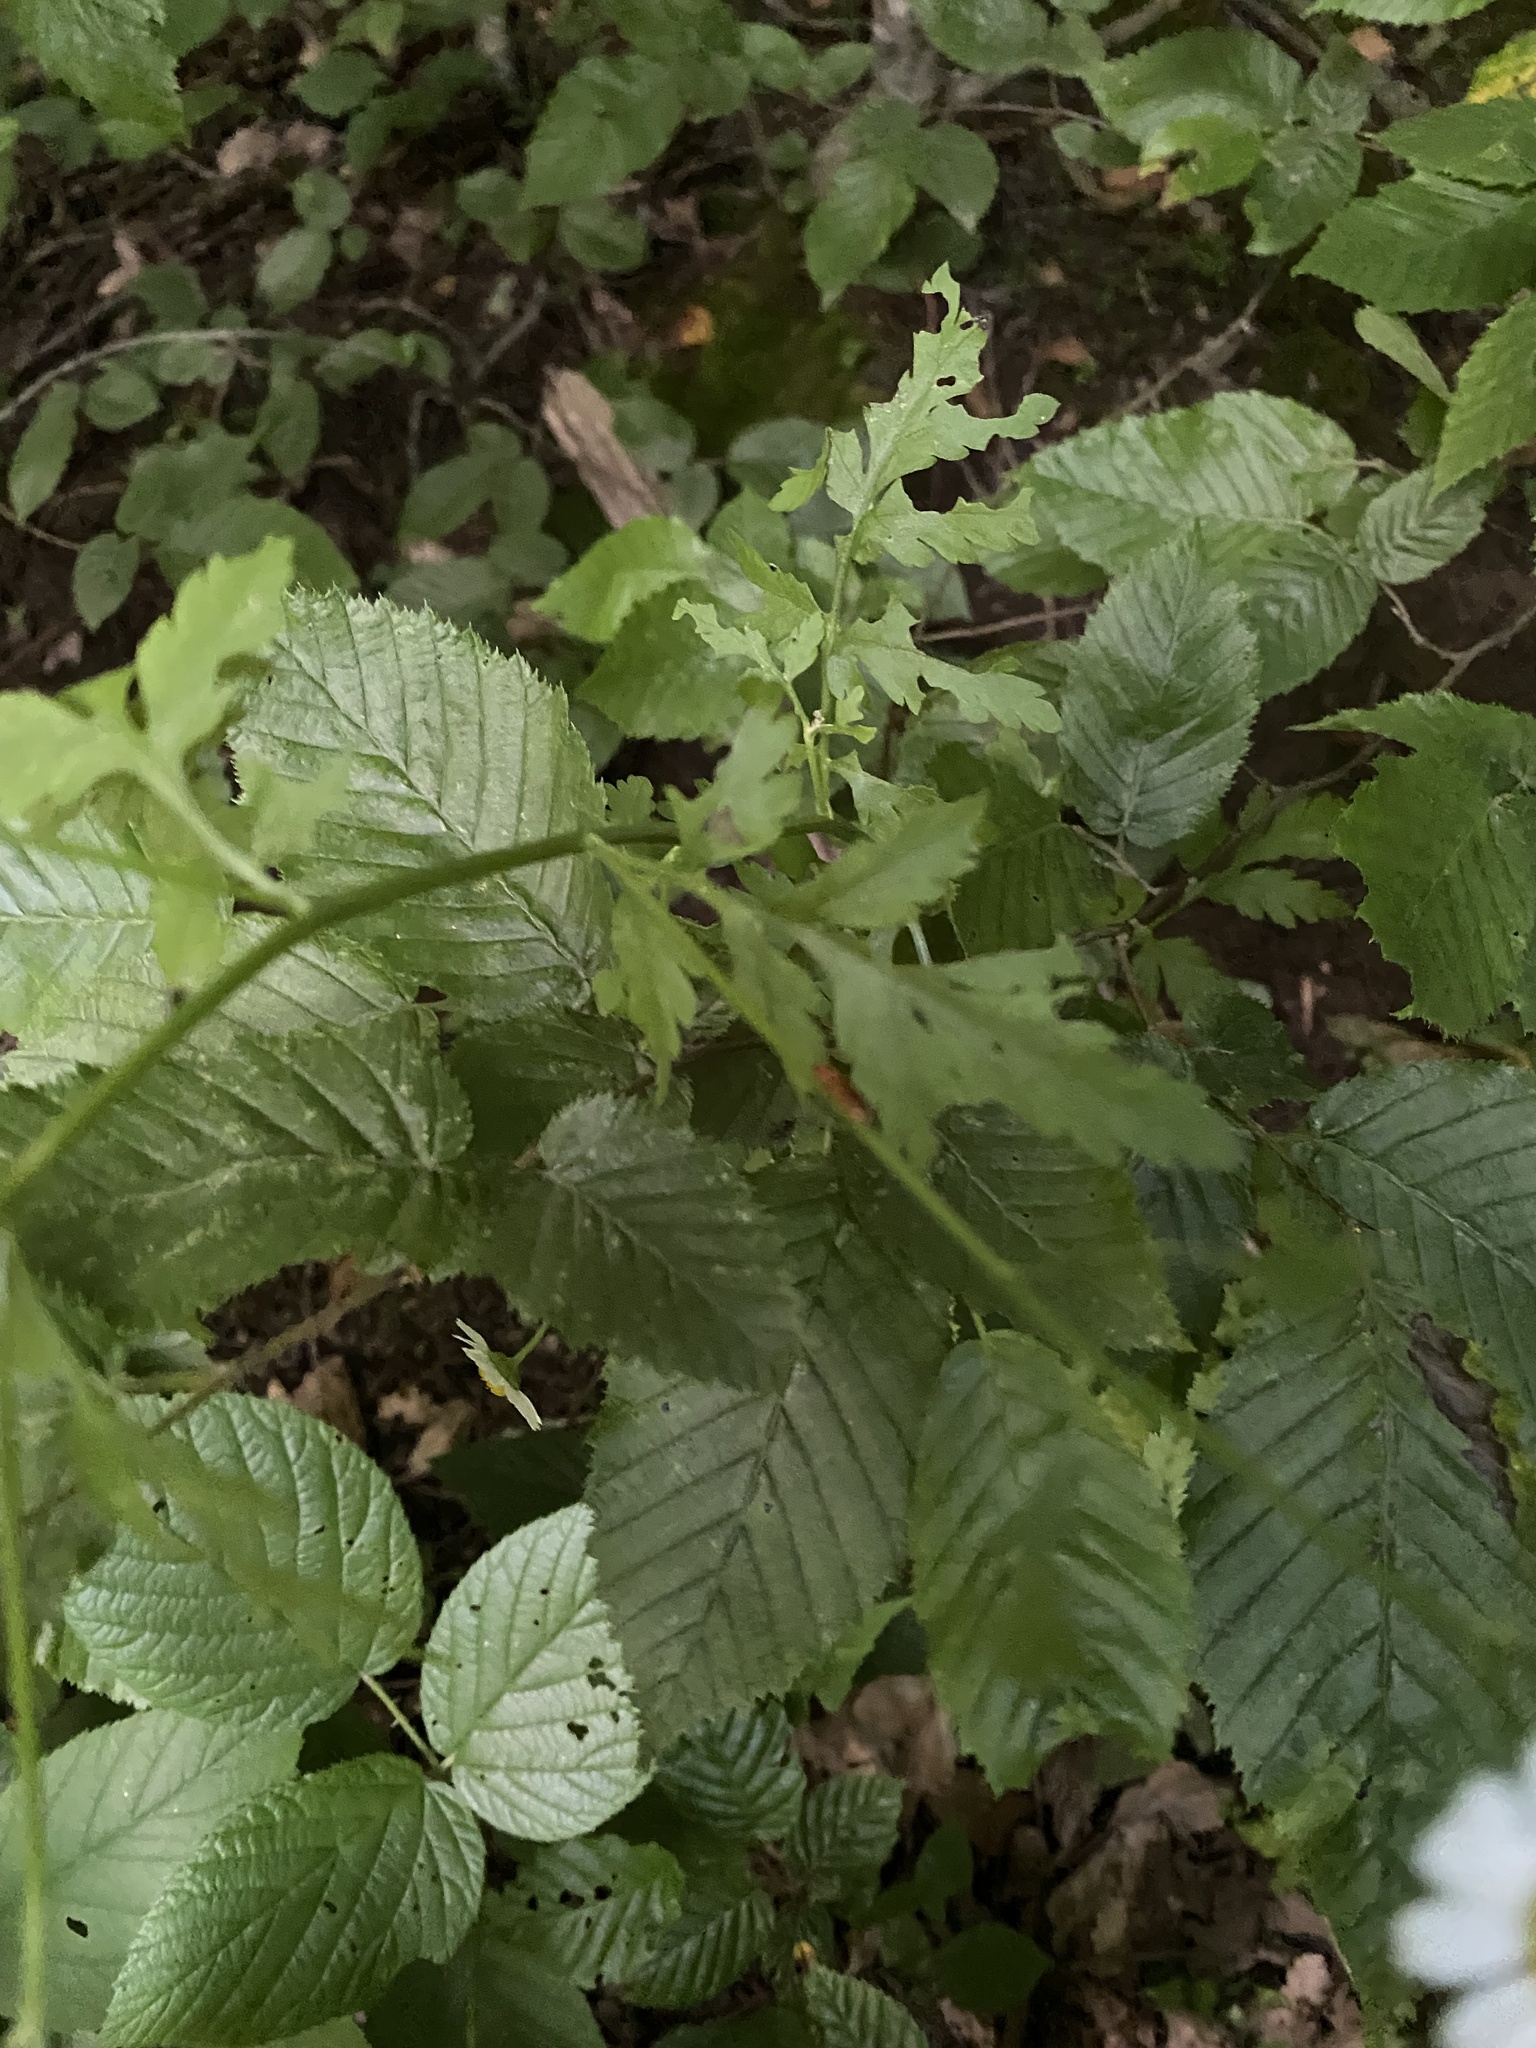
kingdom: Plantae
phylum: Tracheophyta
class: Magnoliopsida
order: Asterales
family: Asteraceae
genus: Tanacetum
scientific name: Tanacetum partheniifolium
